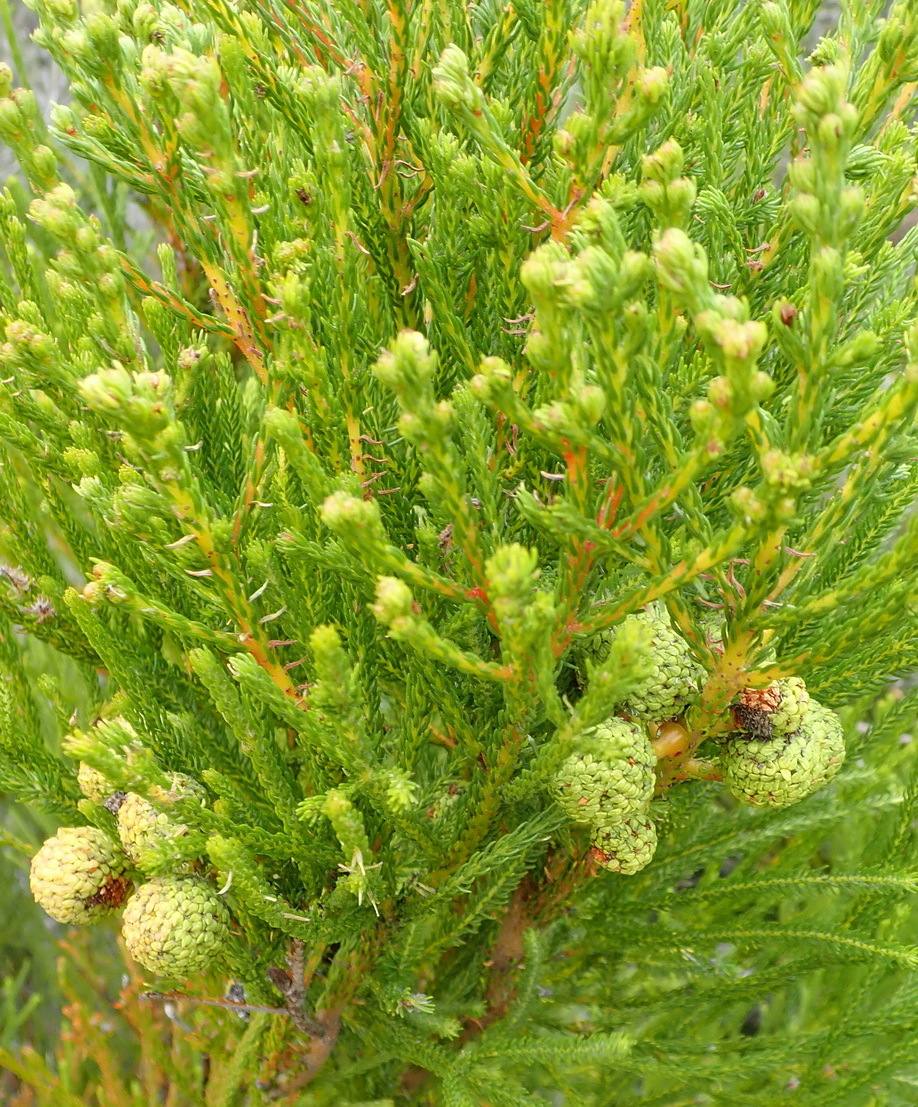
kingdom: Plantae
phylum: Tracheophyta
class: Magnoliopsida
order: Bruniales
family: Bruniaceae
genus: Berzelia
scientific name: Berzelia intermedia
